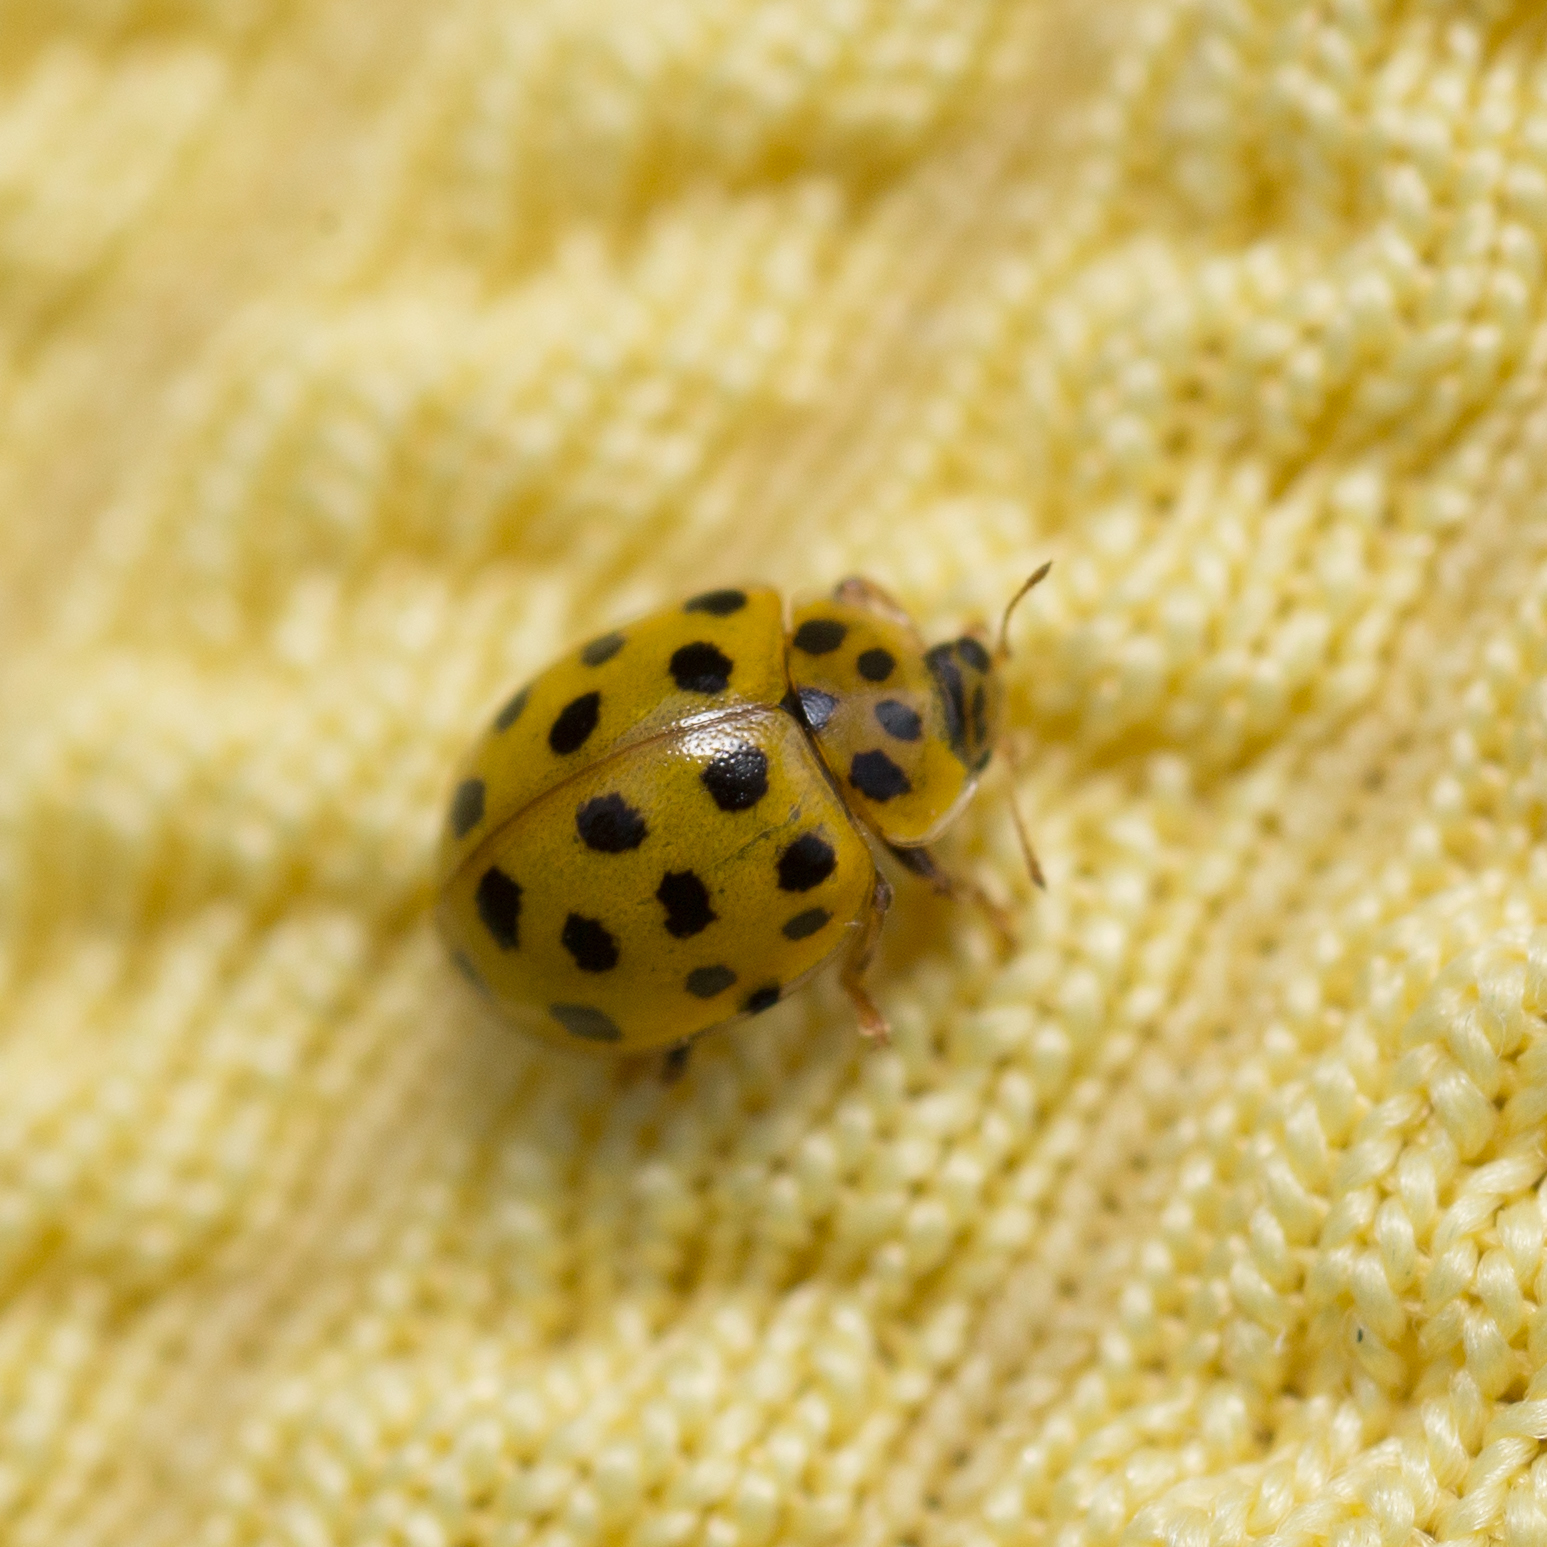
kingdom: Animalia
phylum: Arthropoda
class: Insecta
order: Coleoptera
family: Coccinellidae
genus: Psyllobora
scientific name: Psyllobora vigintiduopunctata
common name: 22-spot ladybird
